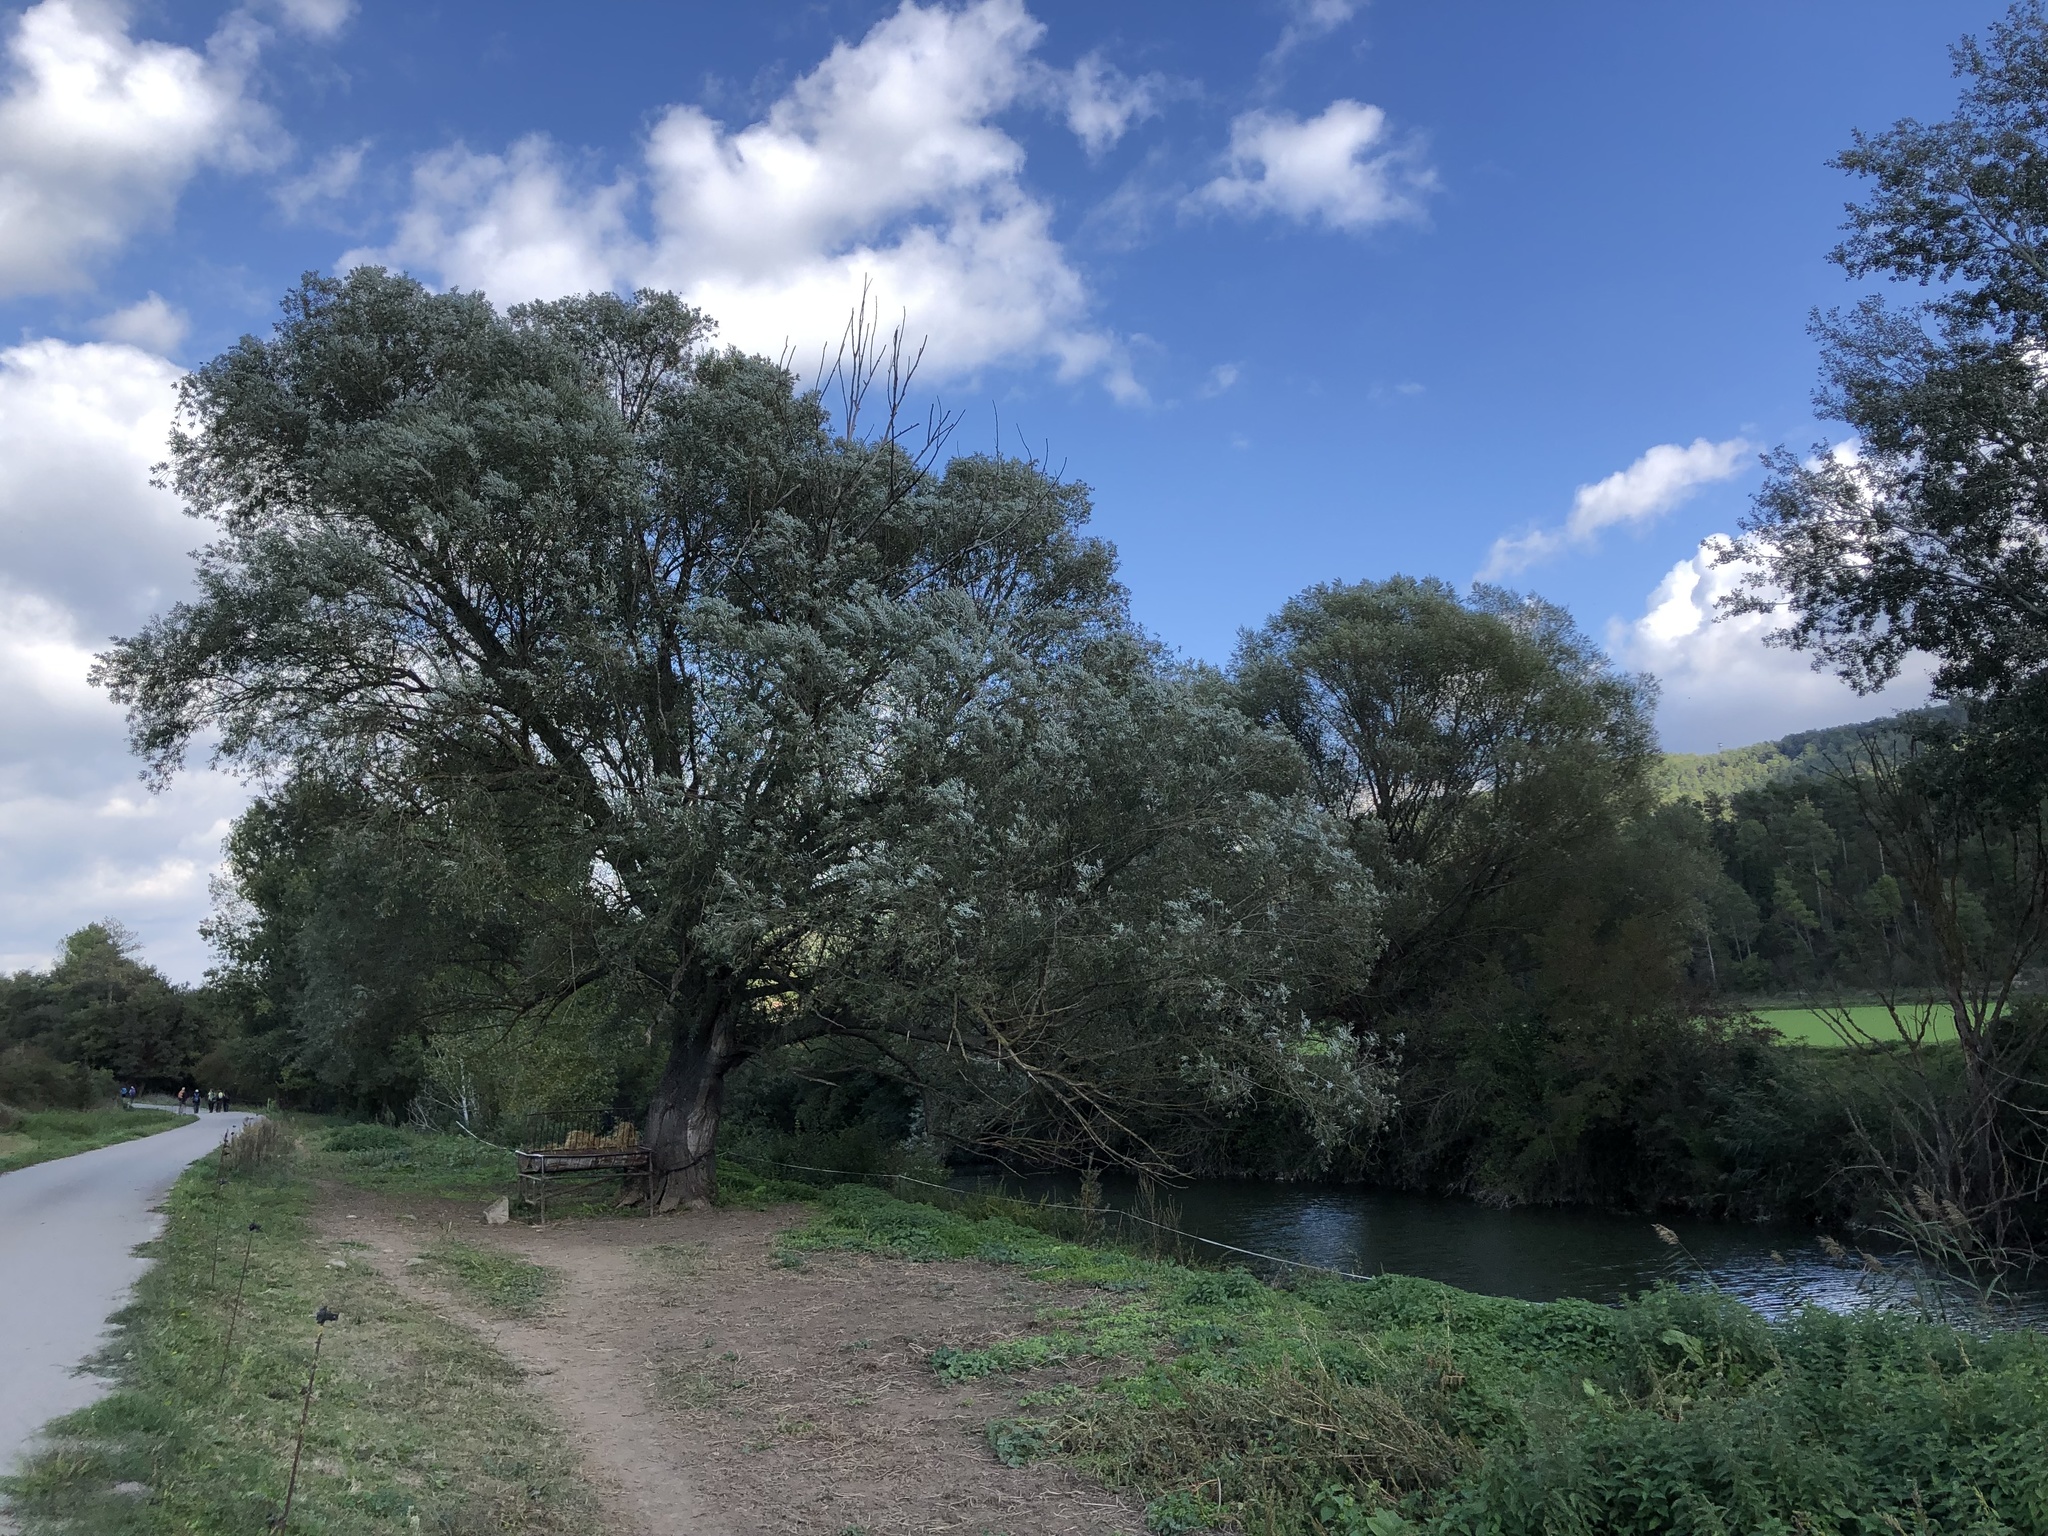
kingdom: Plantae
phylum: Tracheophyta
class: Magnoliopsida
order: Malpighiales
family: Salicaceae
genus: Salix
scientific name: Salix alba
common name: White willow
